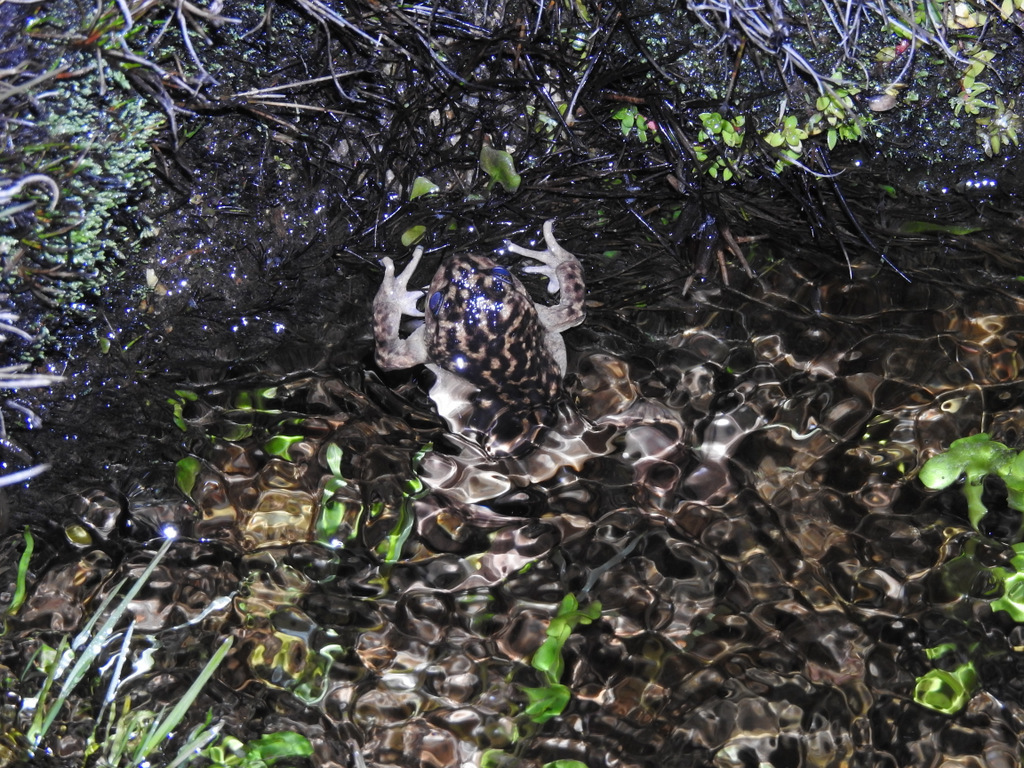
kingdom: Animalia
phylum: Chordata
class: Amphibia
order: Anura
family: Alsodidae
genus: Alsodes
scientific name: Alsodes pehuenche
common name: Pehuenche spiny-chest frog
